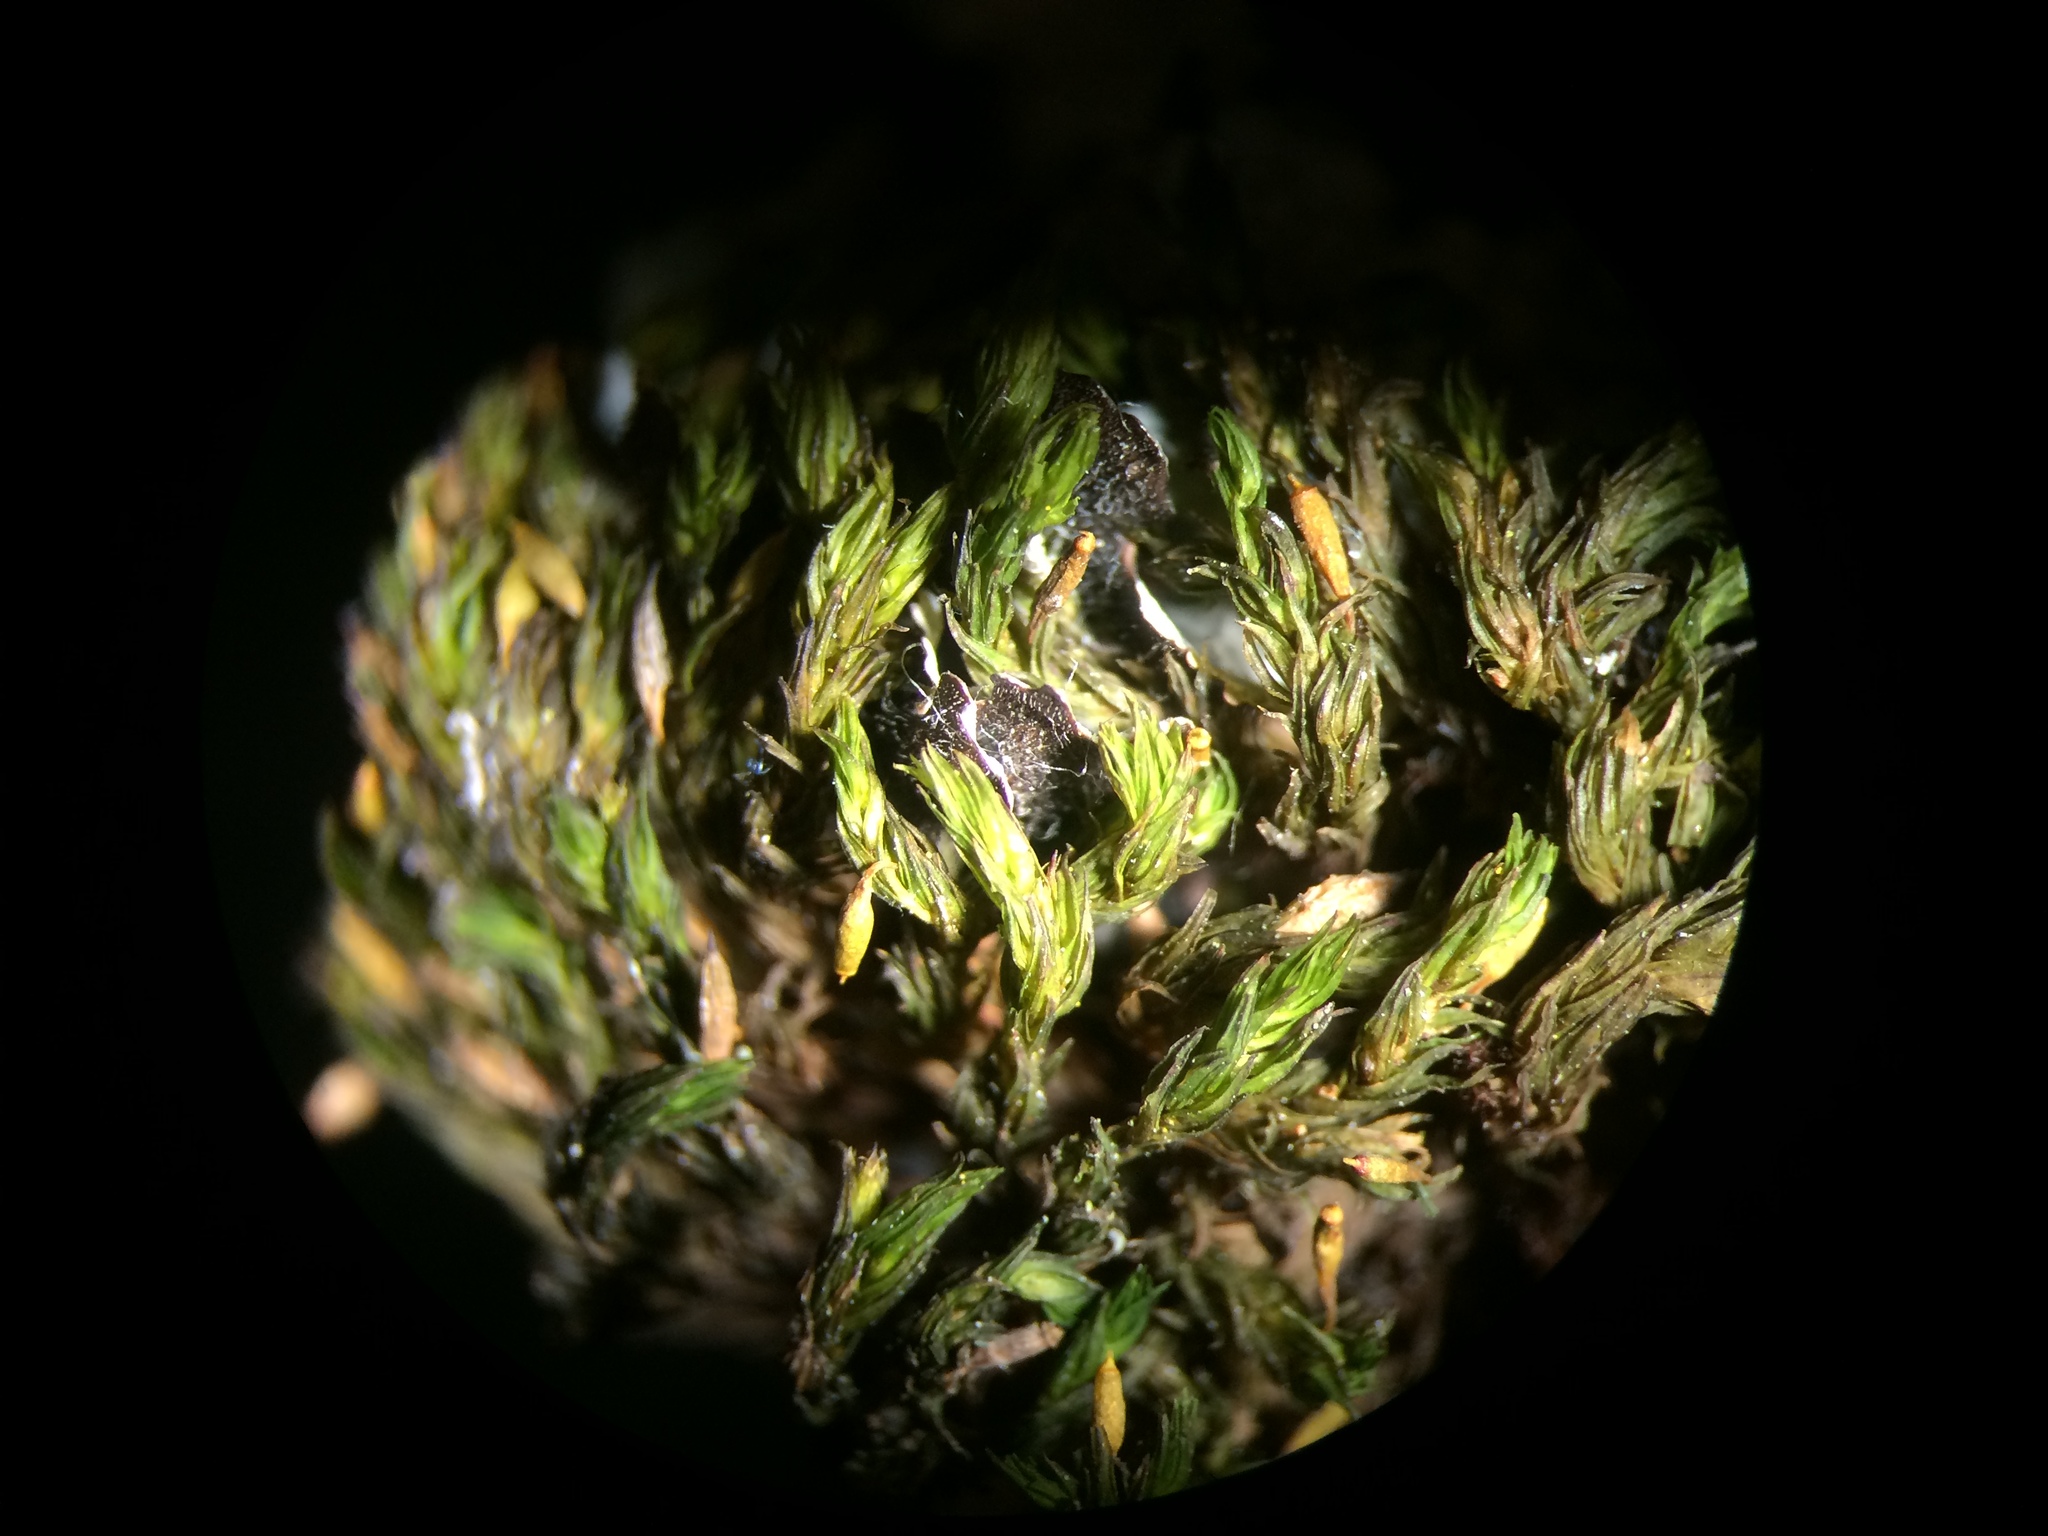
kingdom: Plantae
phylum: Bryophyta
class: Bryopsida
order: Orthotrichales
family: Orthotrichaceae
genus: Lewinskya
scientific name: Lewinskya elegans
